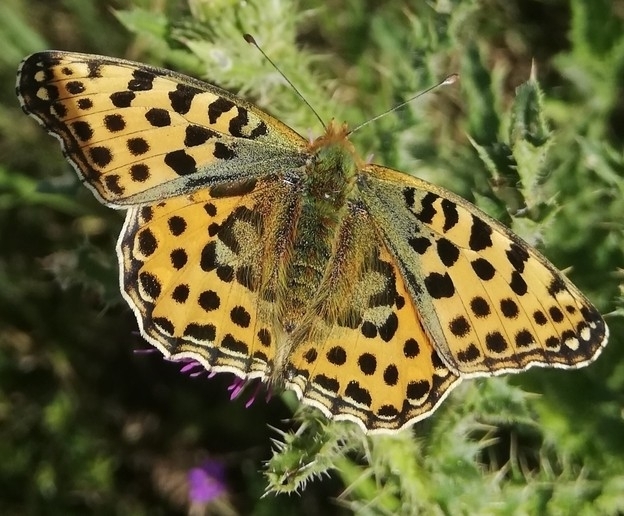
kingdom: Animalia
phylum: Arthropoda
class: Insecta
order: Lepidoptera
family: Nymphalidae
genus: Issoria
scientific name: Issoria lathonia
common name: Queen of spain fritillary
